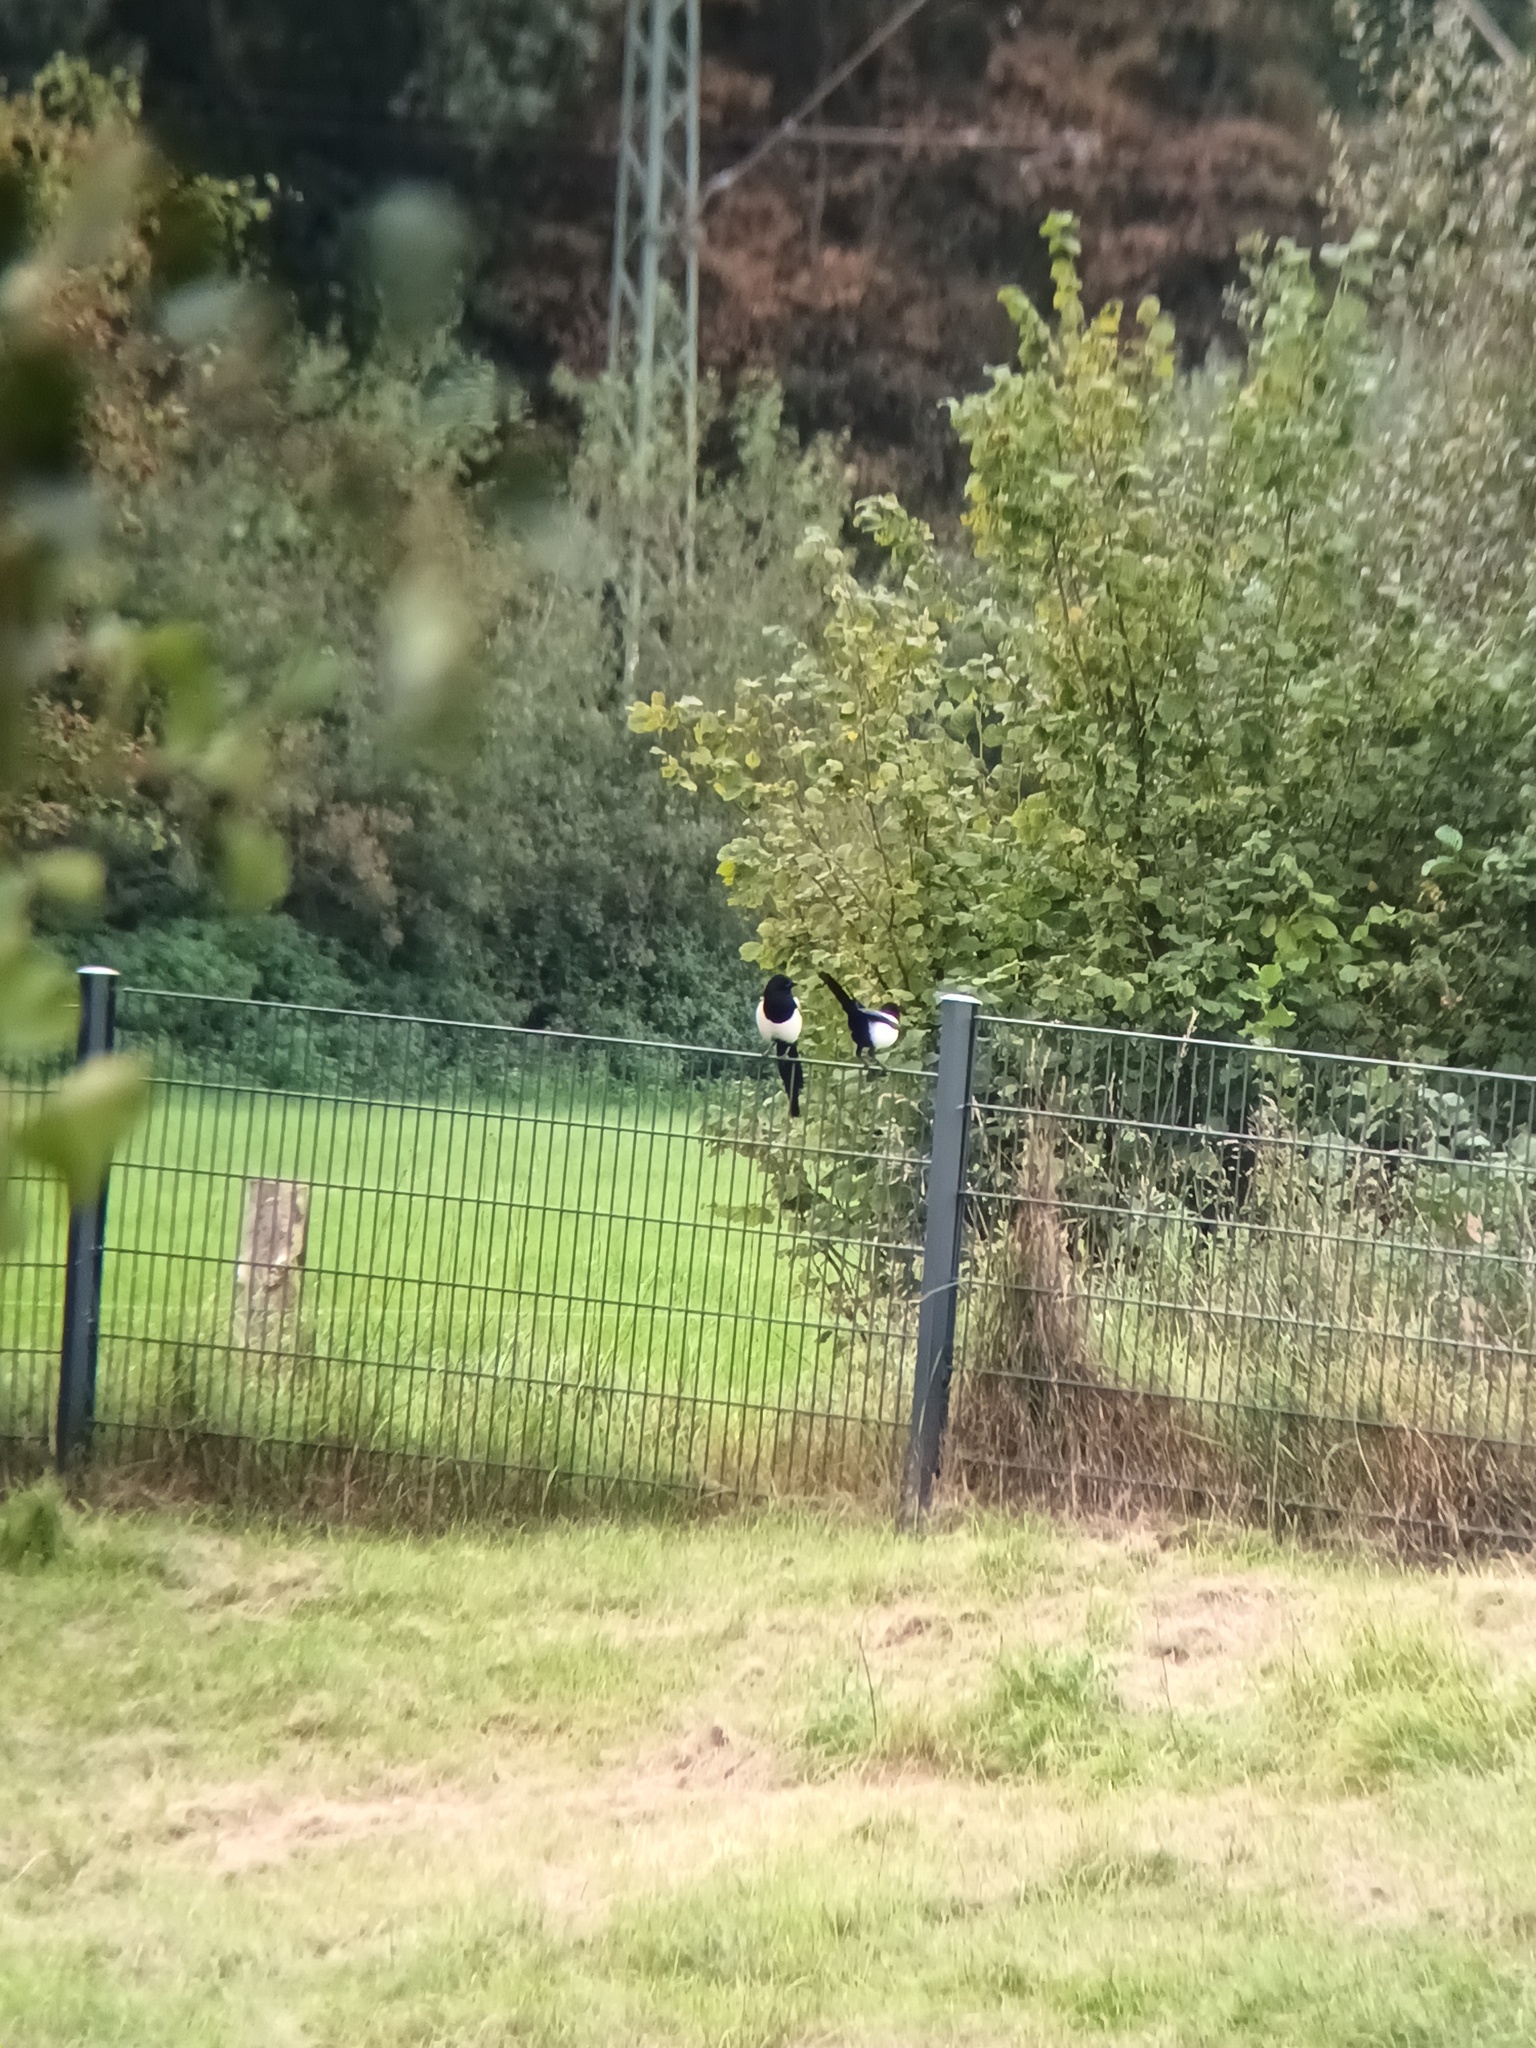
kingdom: Animalia
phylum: Chordata
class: Aves
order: Passeriformes
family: Corvidae
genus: Pica
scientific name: Pica pica
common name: Eurasian magpie
